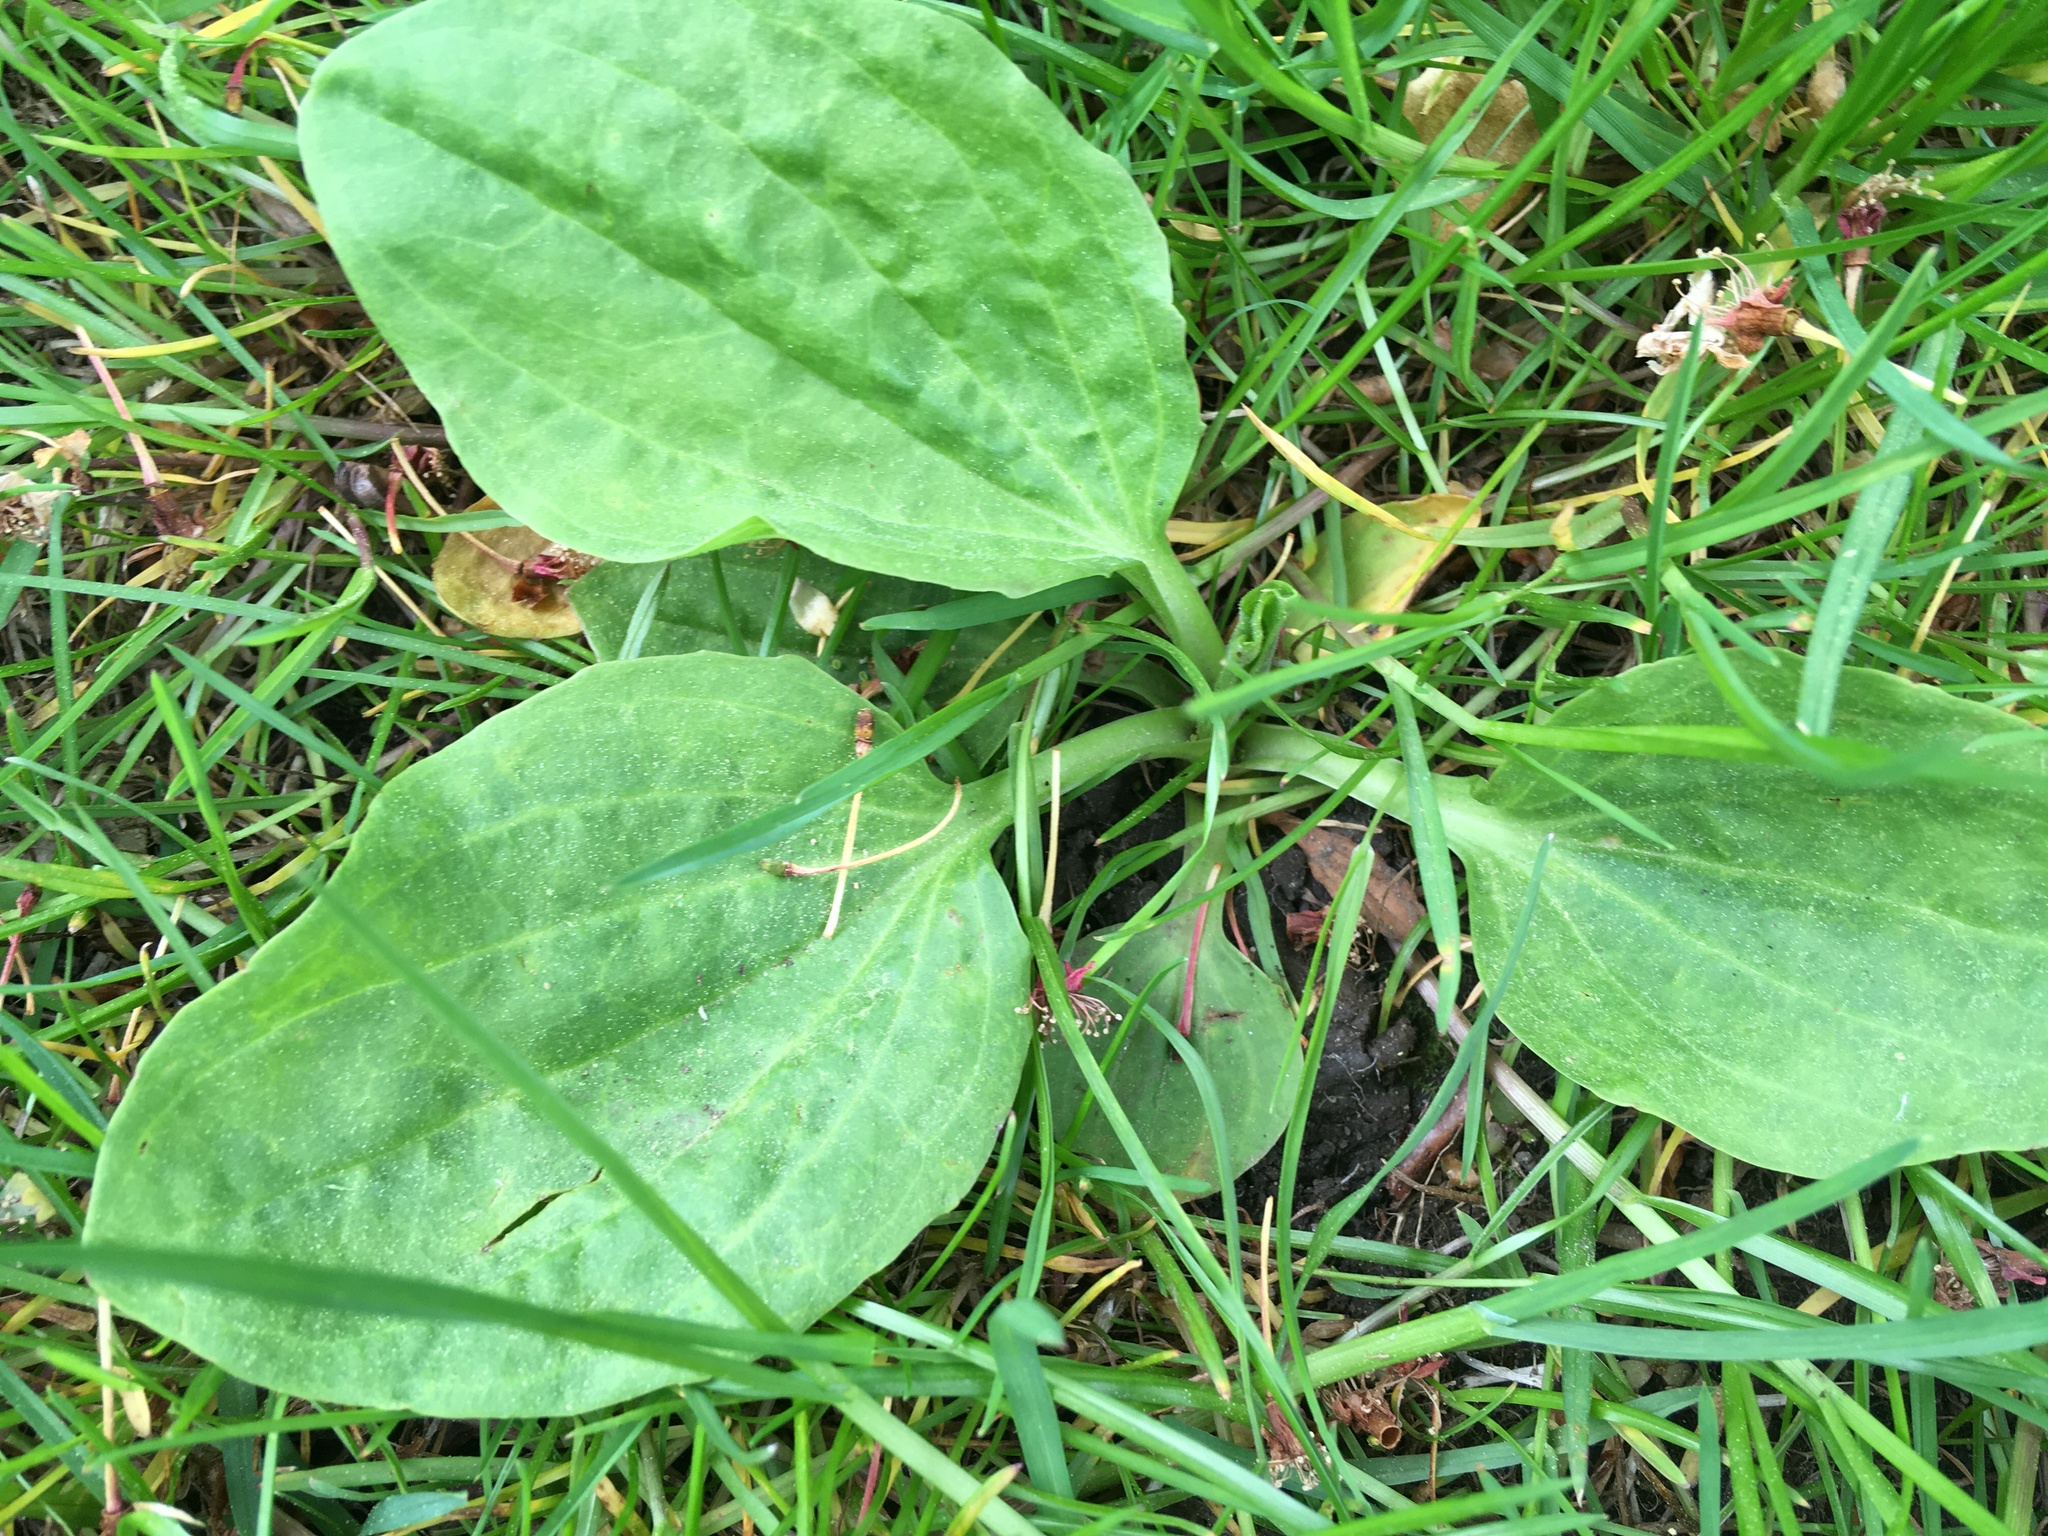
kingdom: Plantae
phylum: Tracheophyta
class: Magnoliopsida
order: Lamiales
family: Plantaginaceae
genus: Plantago
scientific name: Plantago major
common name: Common plantain
